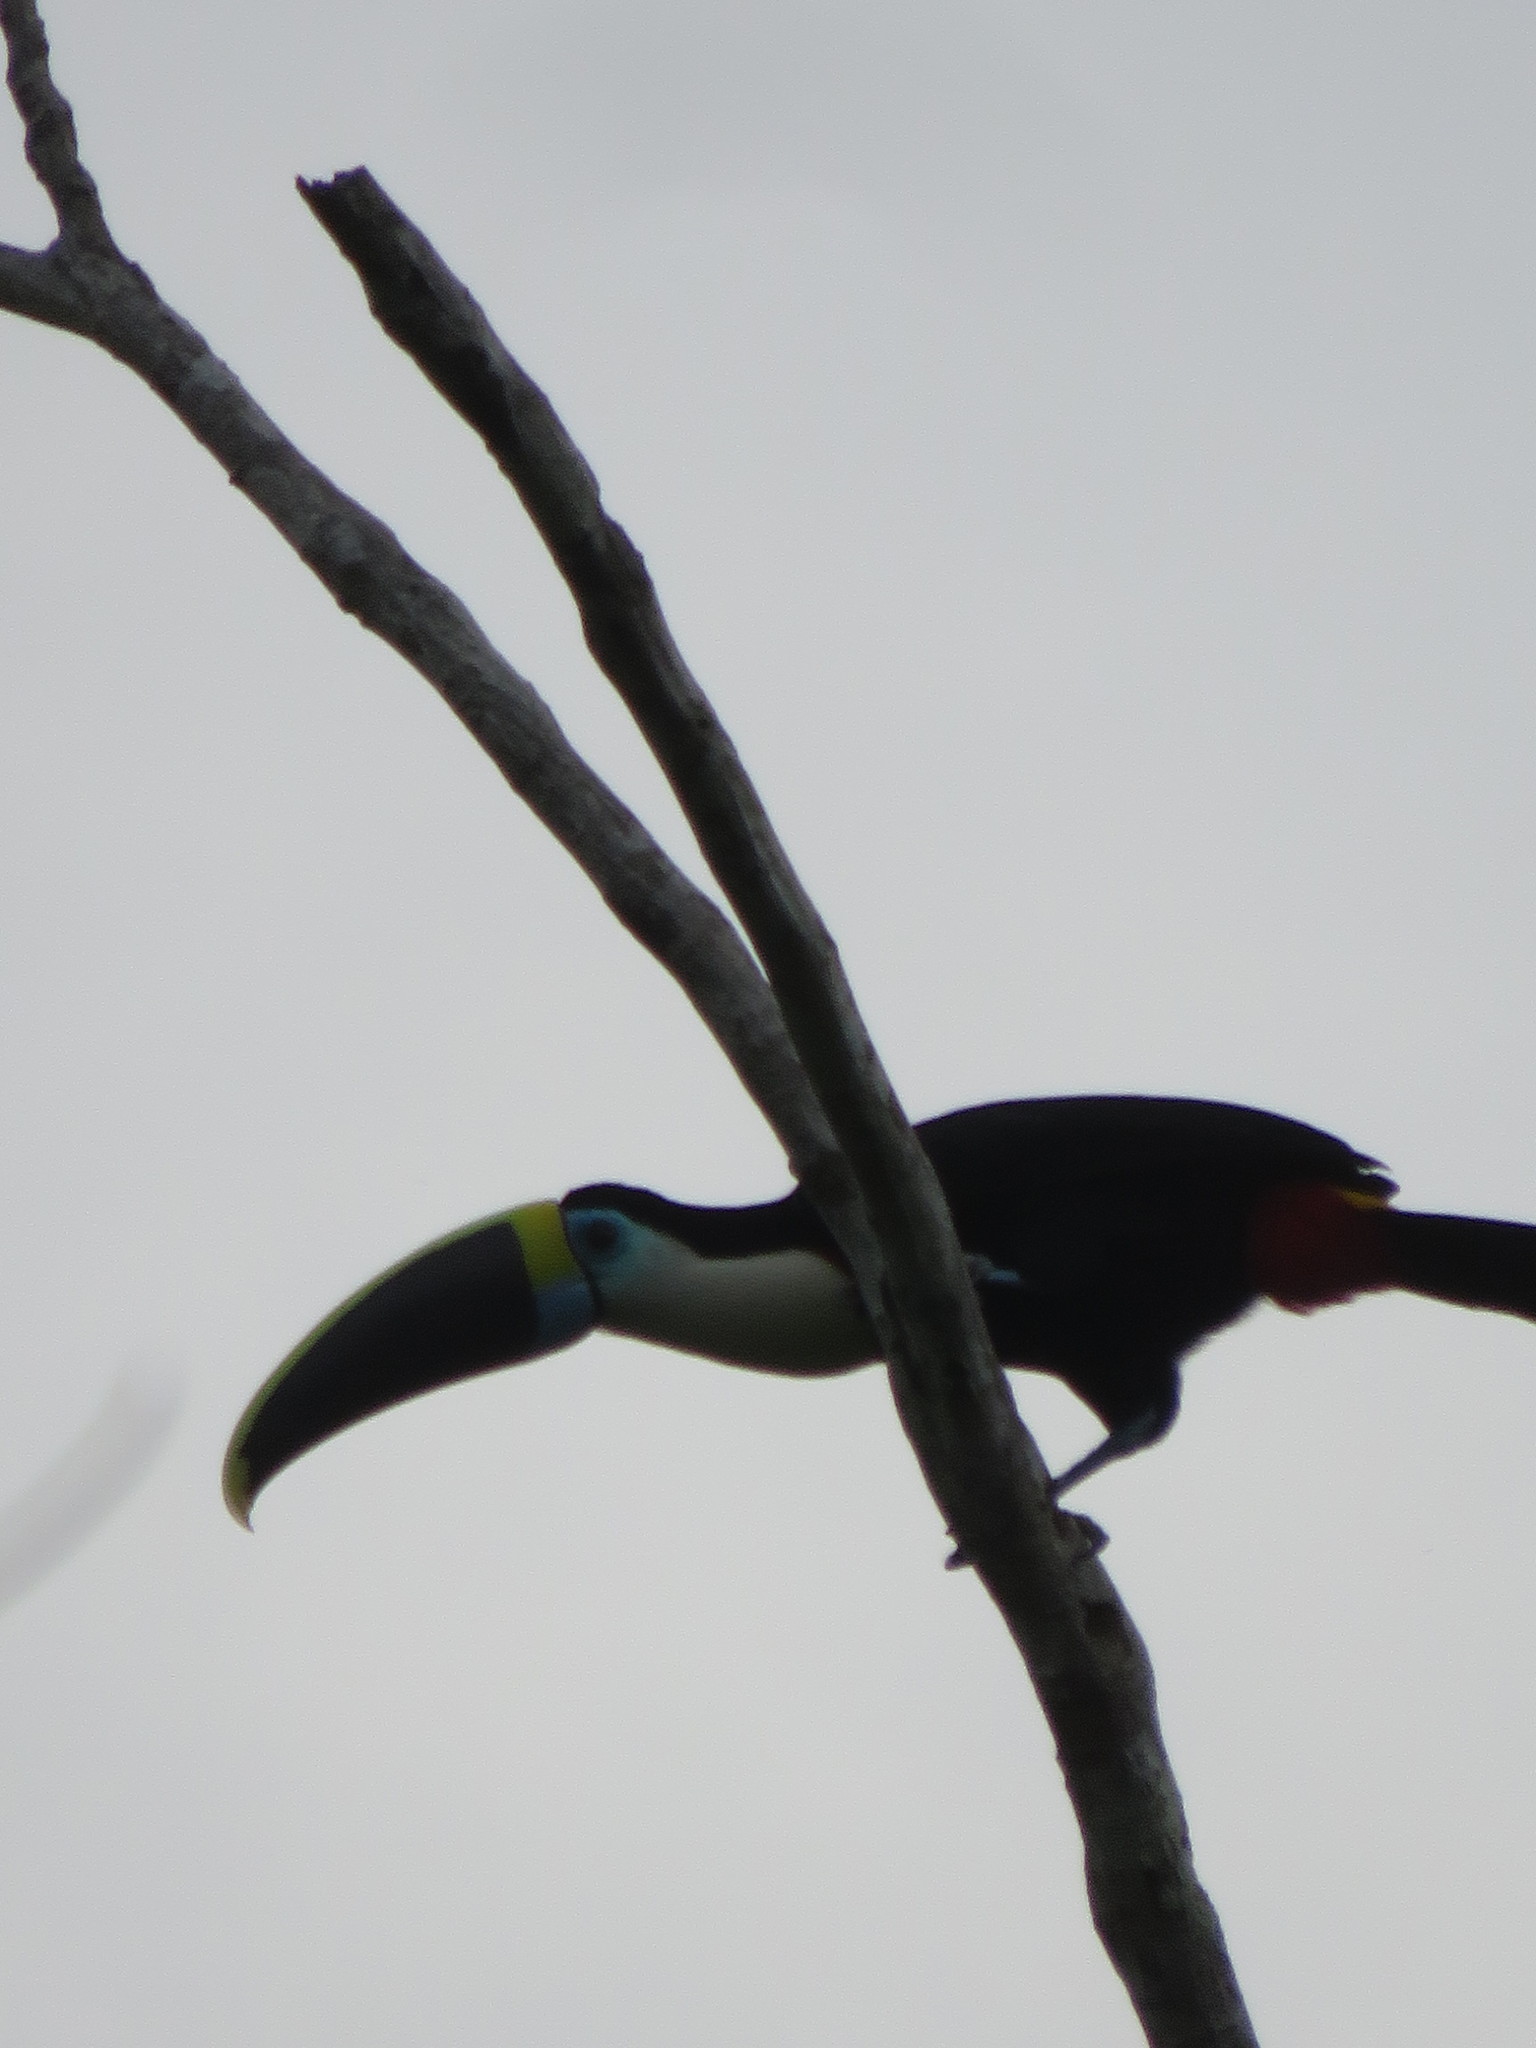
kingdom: Animalia
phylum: Chordata
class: Aves
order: Piciformes
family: Ramphastidae
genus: Ramphastos
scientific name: Ramphastos tucanus
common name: White-throated toucan
